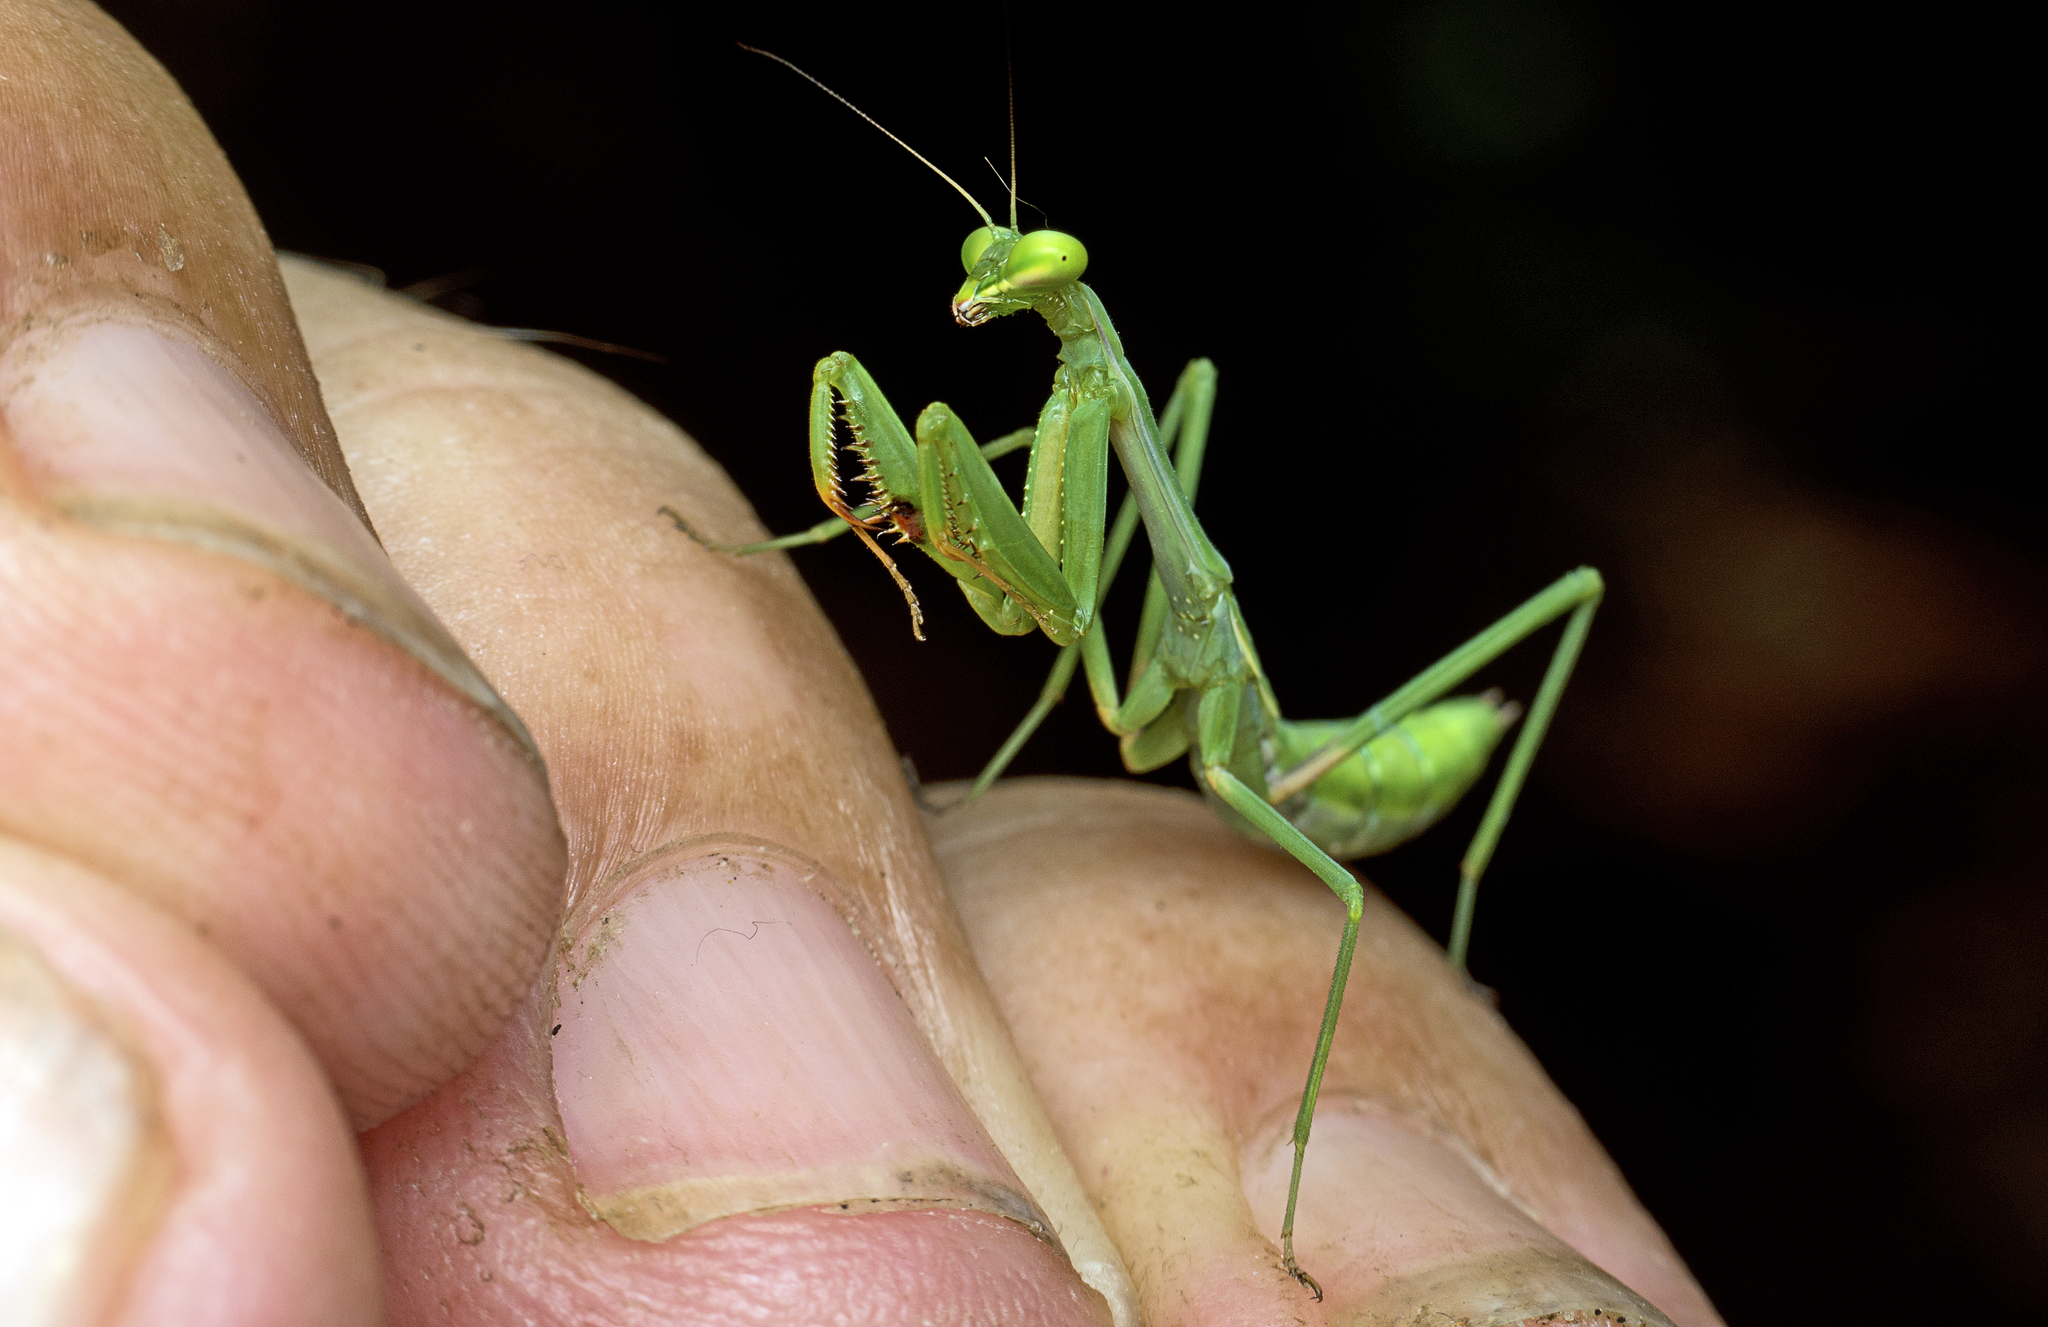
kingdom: Animalia
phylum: Arthropoda
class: Insecta
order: Mantodea
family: Mantidae
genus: Pseudomantis
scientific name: Pseudomantis albofimbriata
